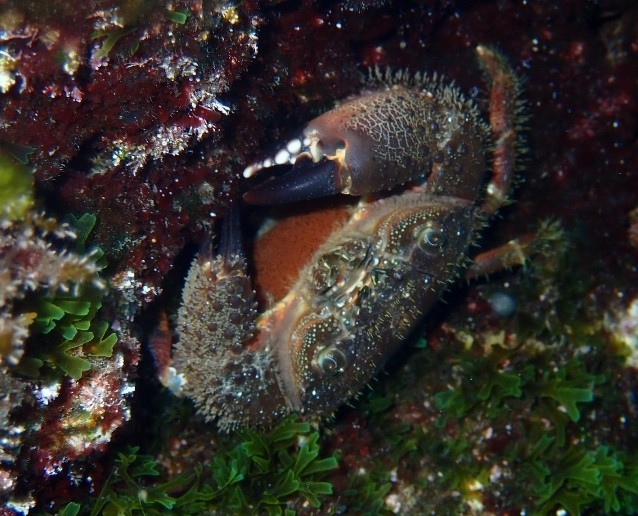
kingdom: Animalia
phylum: Arthropoda
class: Malacostraca
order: Decapoda
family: Eriphiidae
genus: Eriphia
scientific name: Eriphia verrucosa
